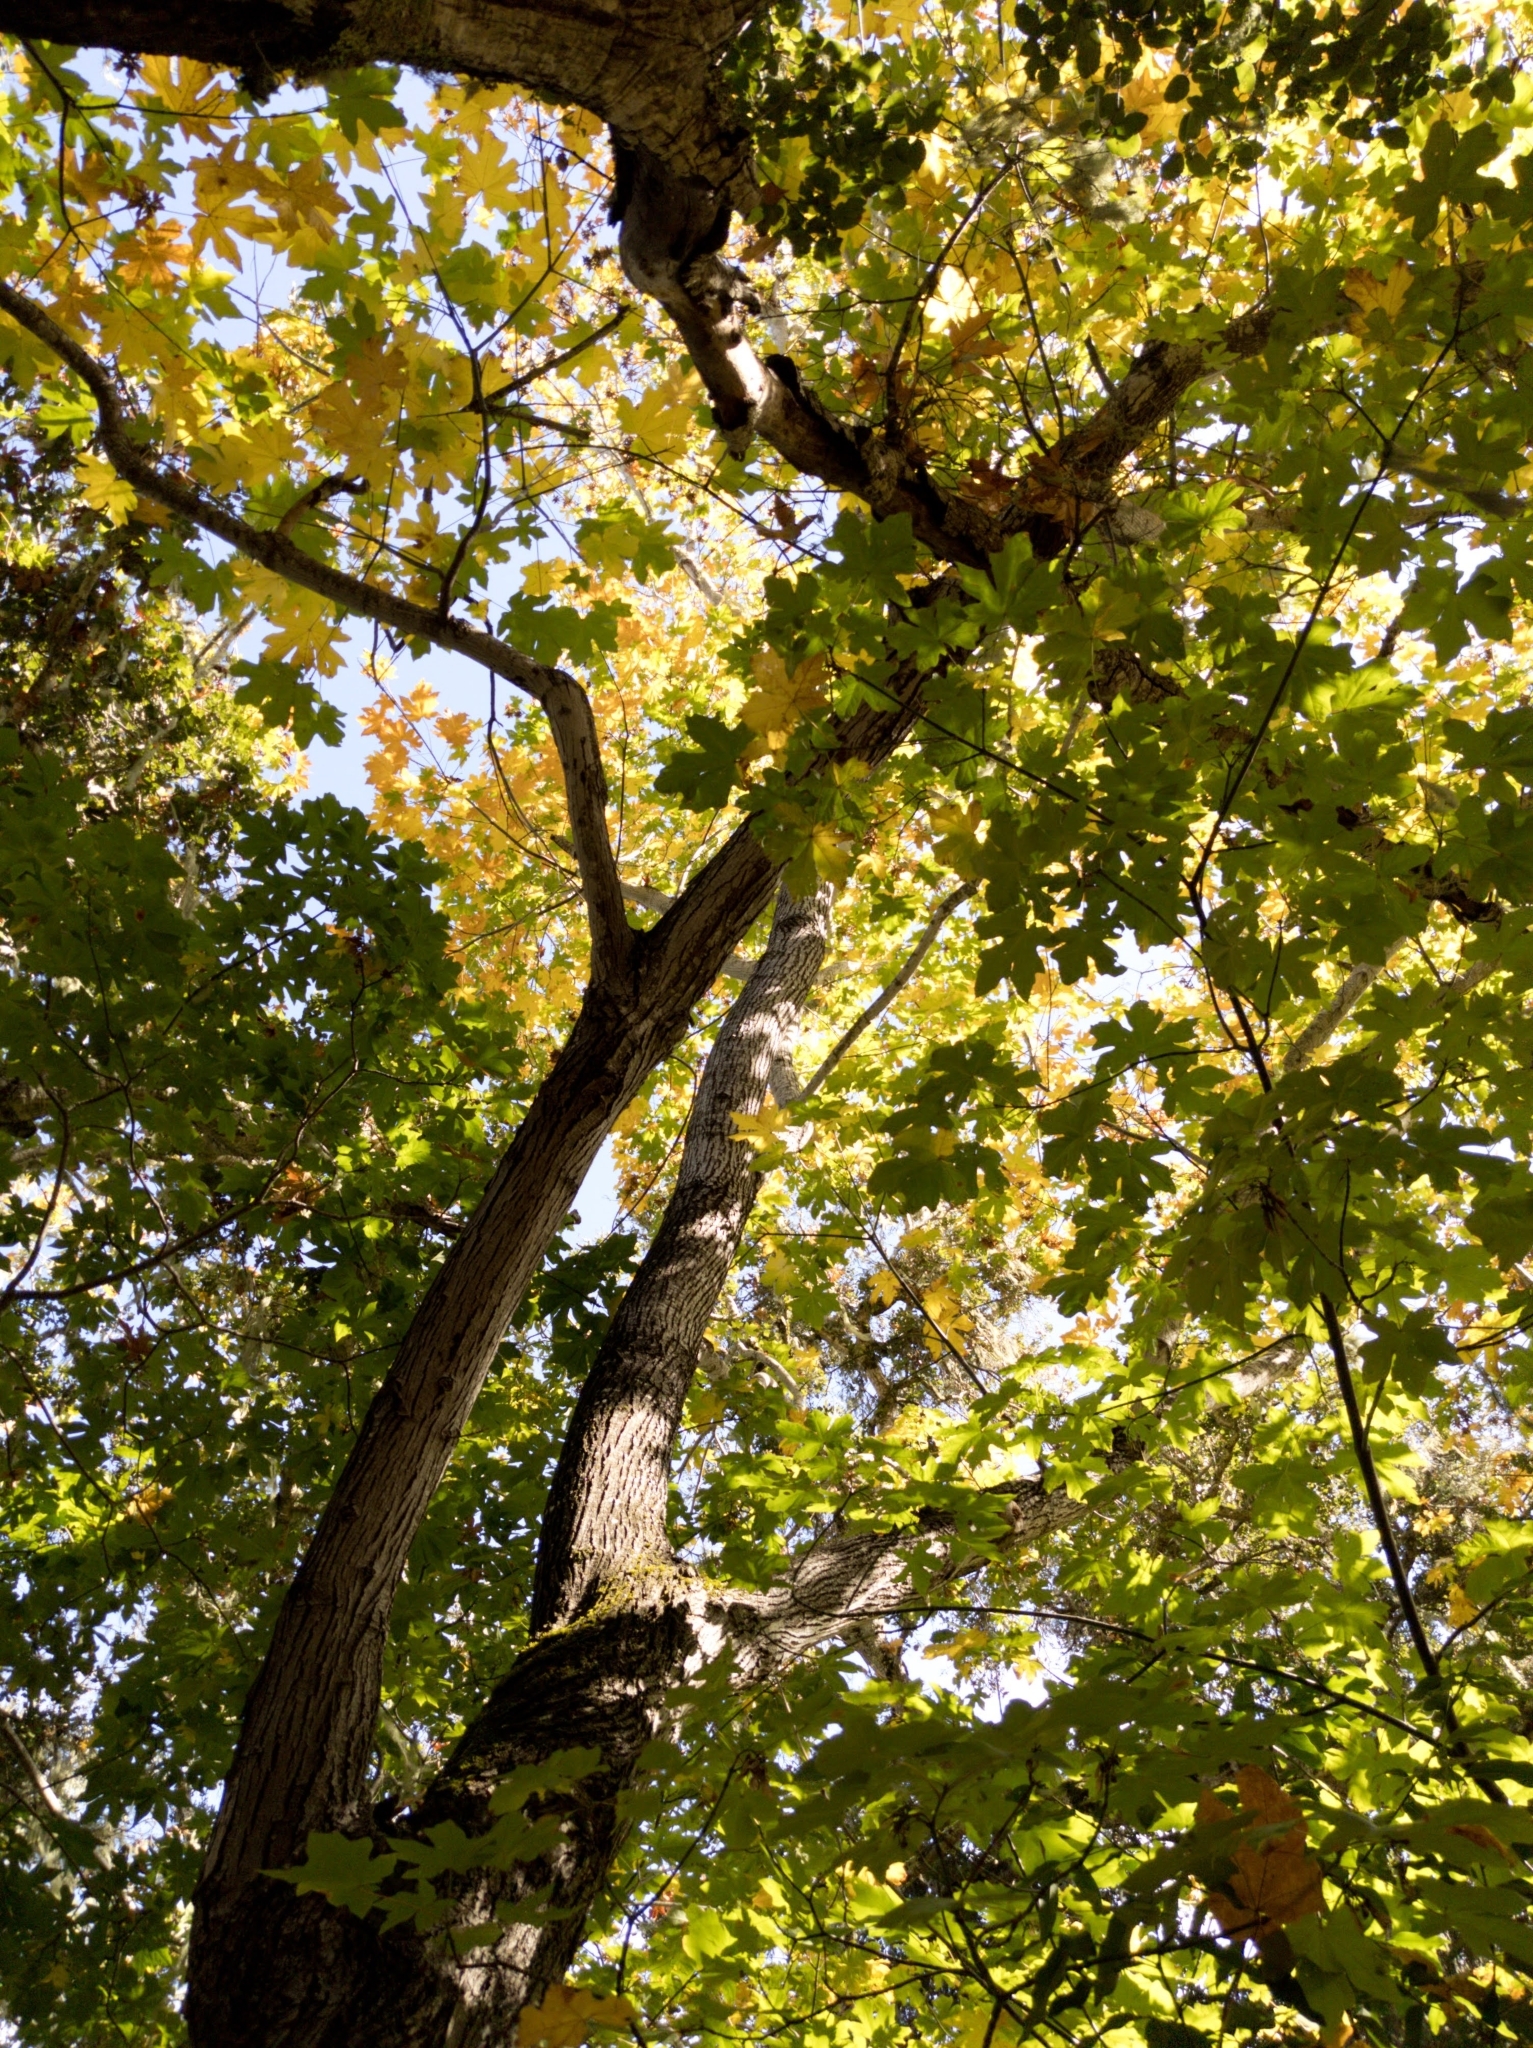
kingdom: Plantae
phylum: Tracheophyta
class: Magnoliopsida
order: Sapindales
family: Sapindaceae
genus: Acer
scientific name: Acer macrophyllum
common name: Oregon maple
